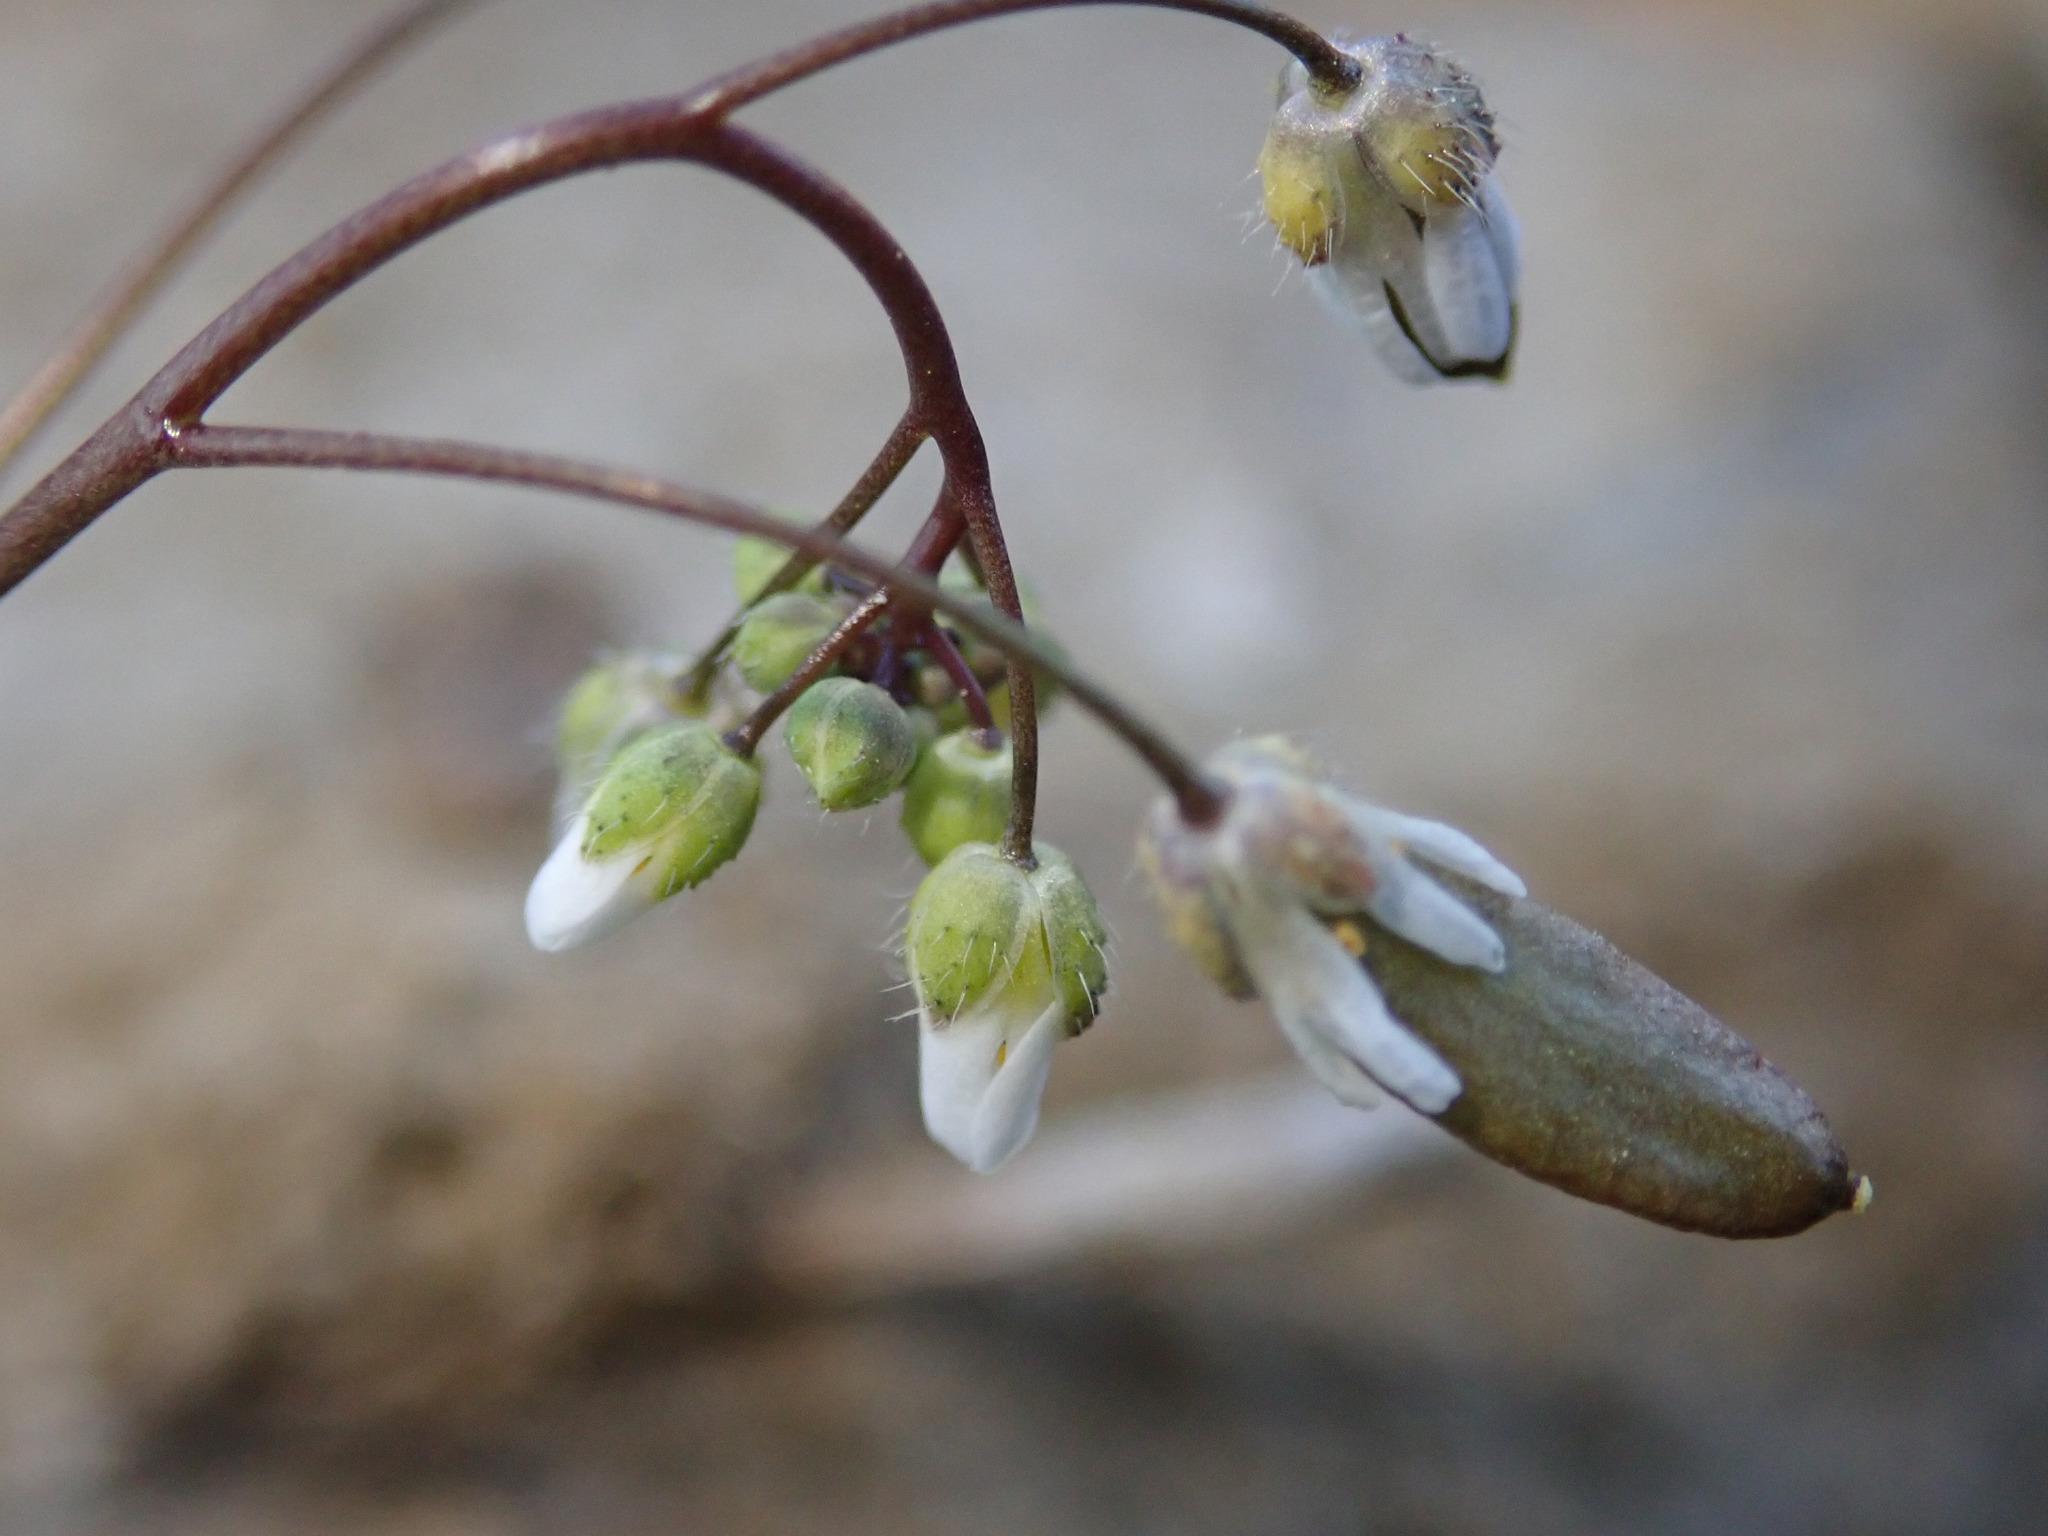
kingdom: Plantae
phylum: Tracheophyta
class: Magnoliopsida
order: Brassicales
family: Brassicaceae
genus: Draba
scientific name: Draba verna
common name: Spring draba
